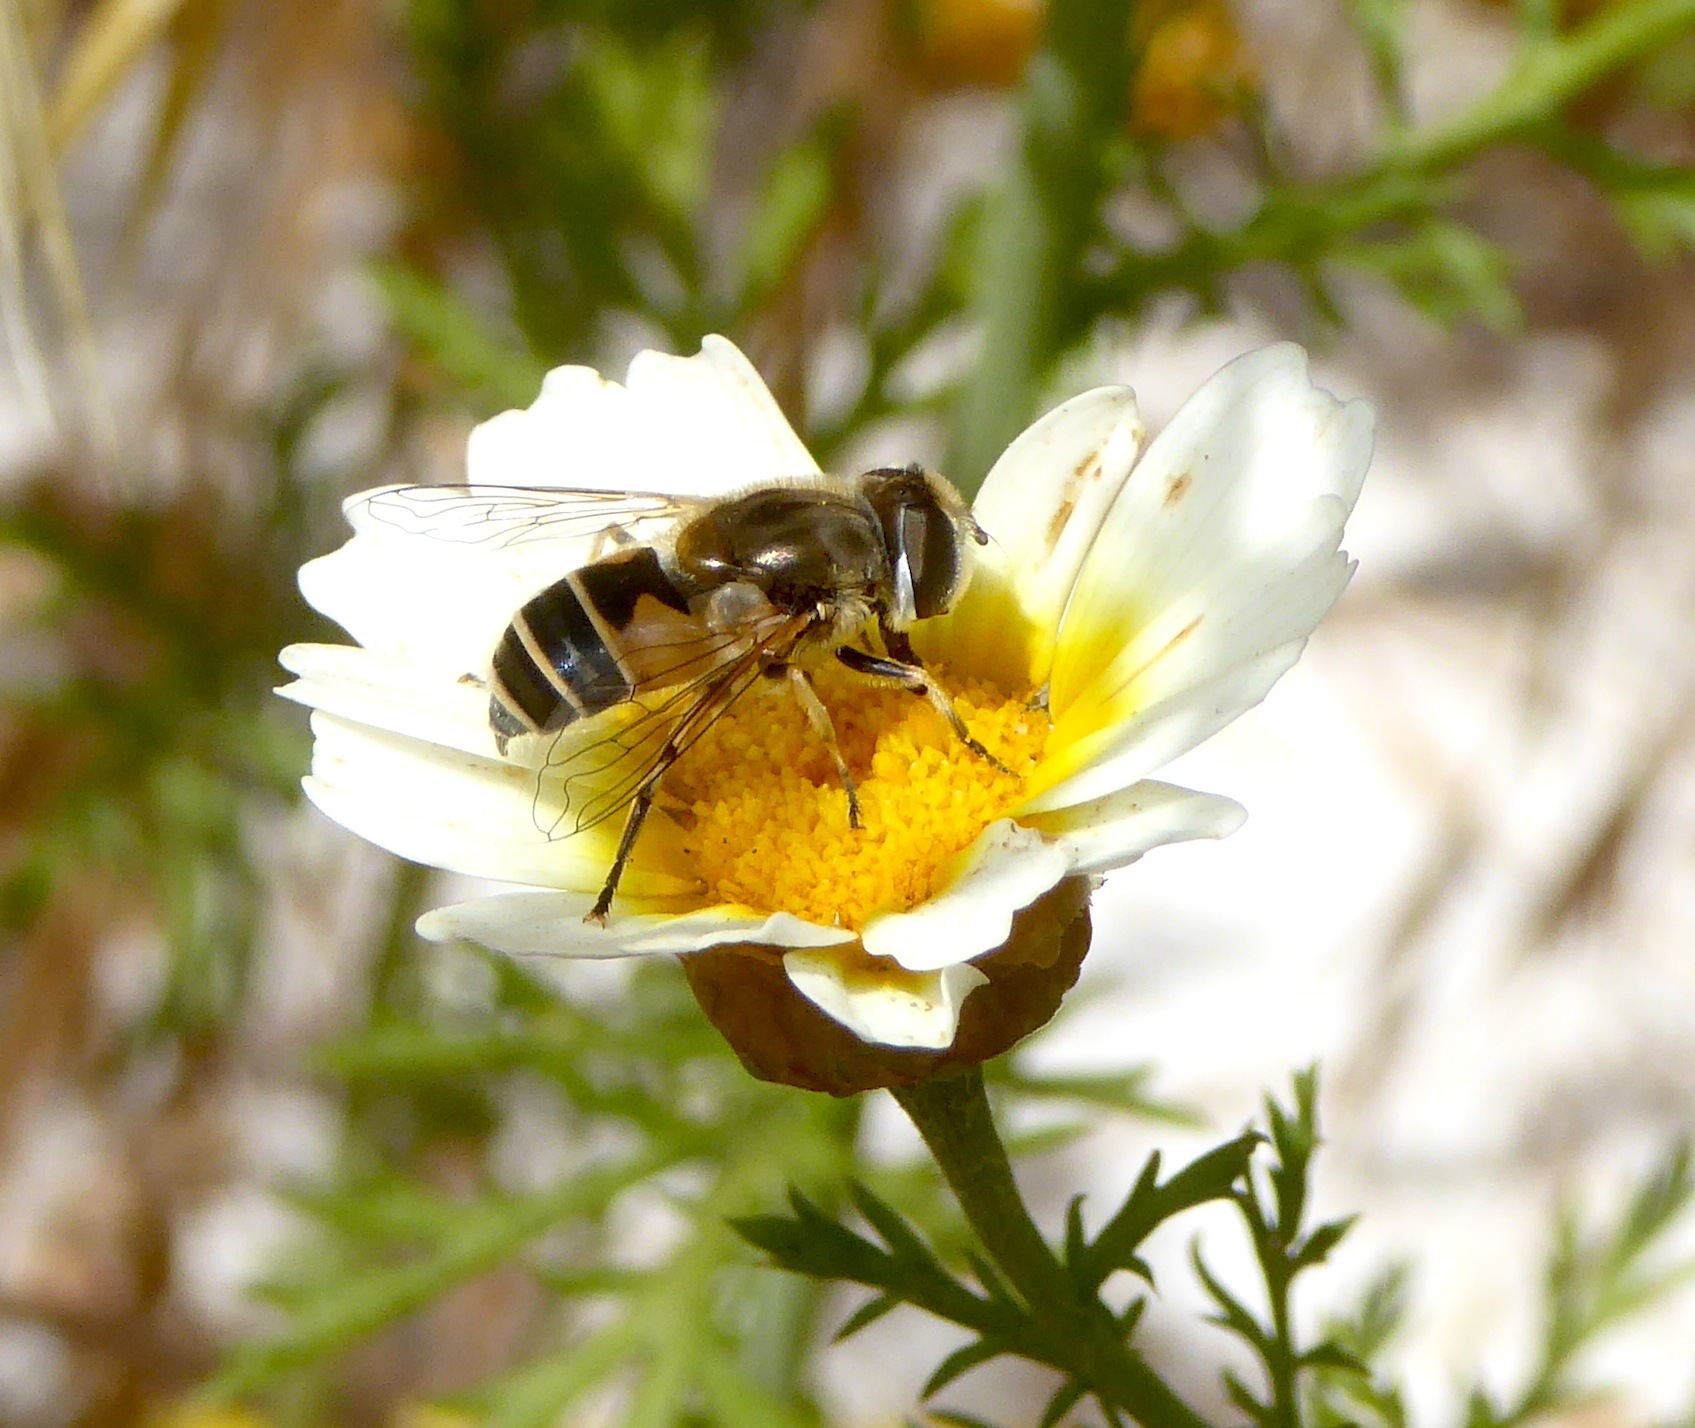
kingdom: Animalia
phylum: Arthropoda
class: Insecta
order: Diptera
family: Syrphidae
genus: Eristalis
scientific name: Eristalis arbustorum
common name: Hover fly
